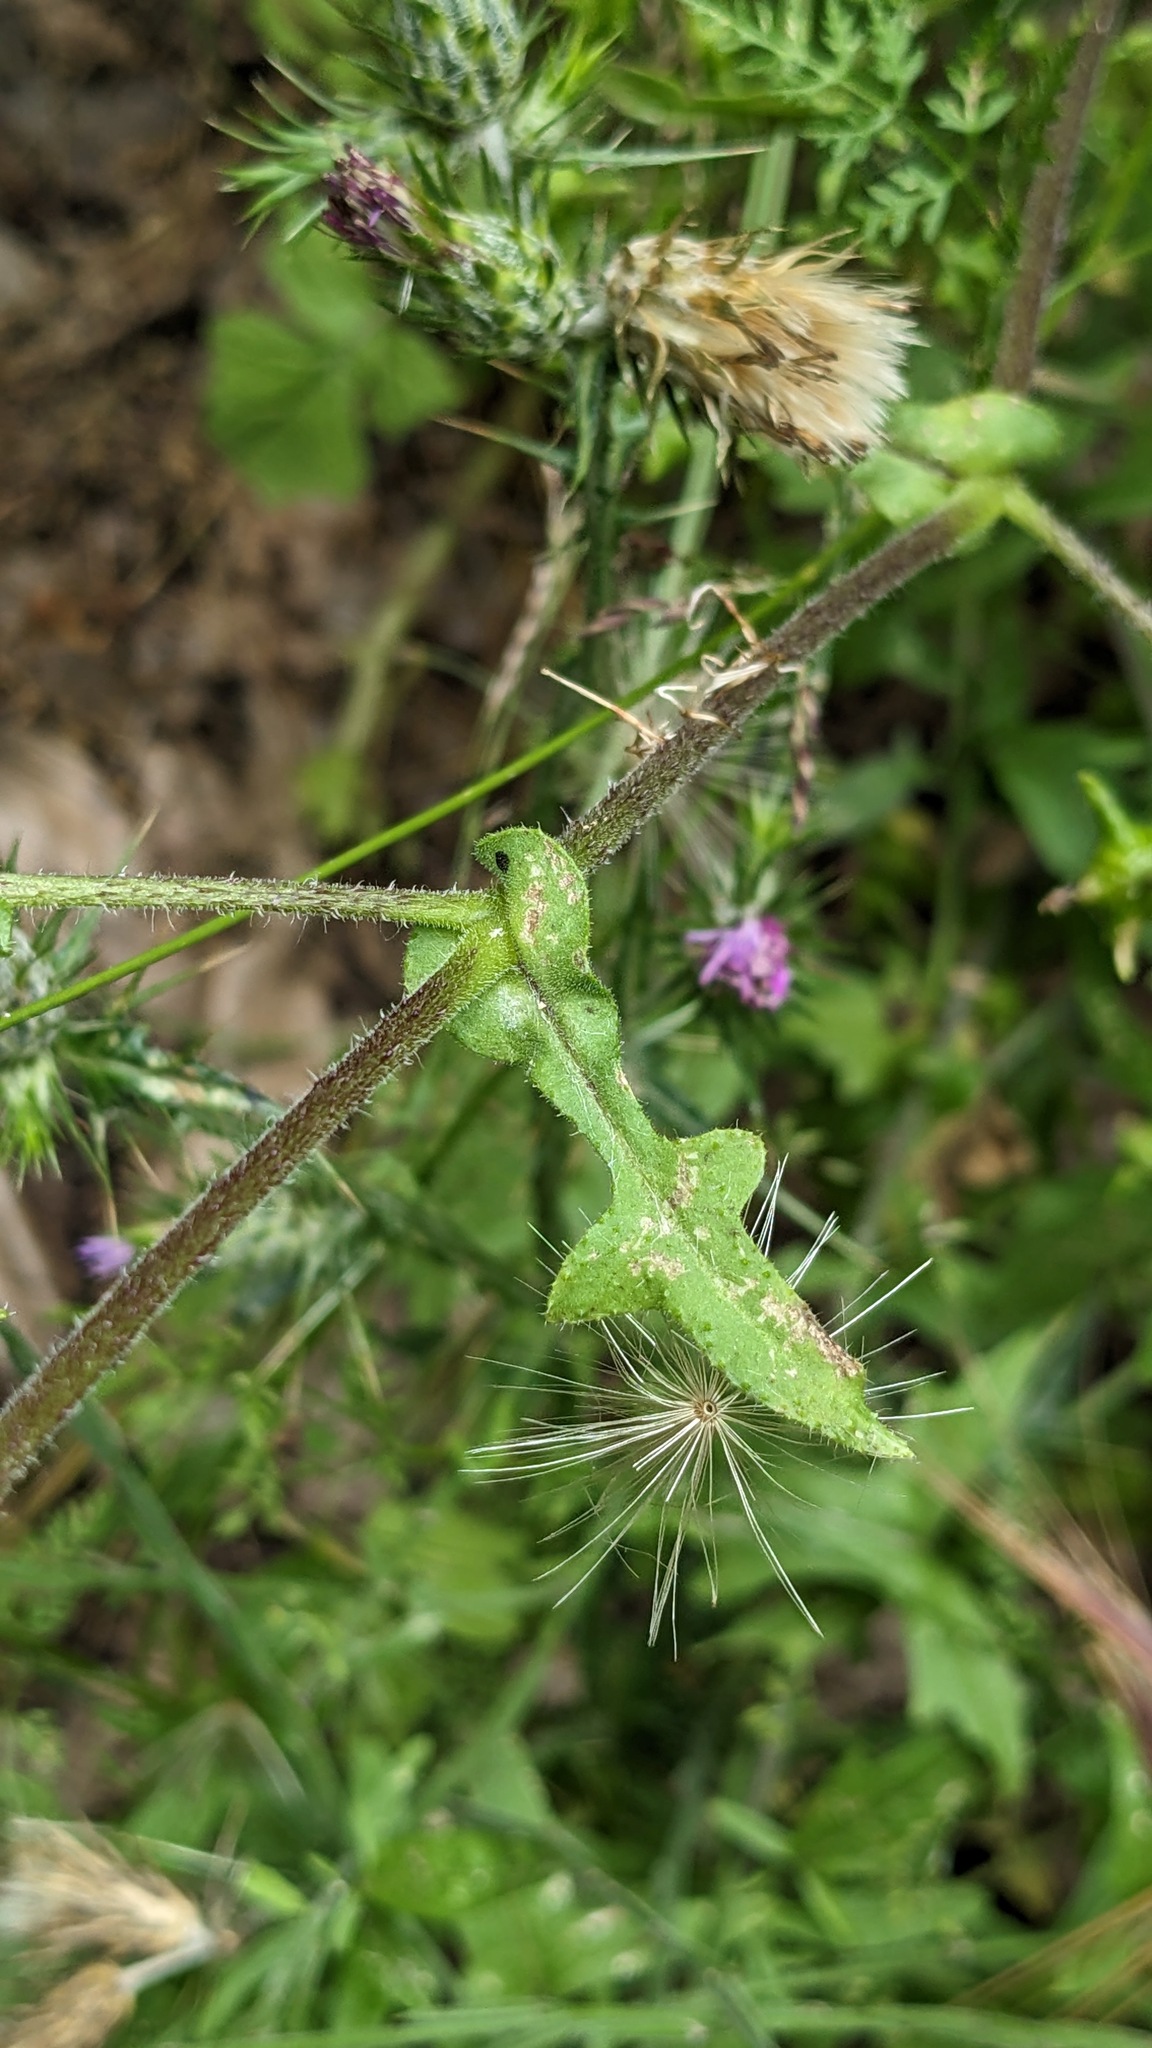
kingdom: Plantae
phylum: Tracheophyta
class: Magnoliopsida
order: Boraginales
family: Hydrophyllaceae
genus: Pholistoma
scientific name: Pholistoma auritum
